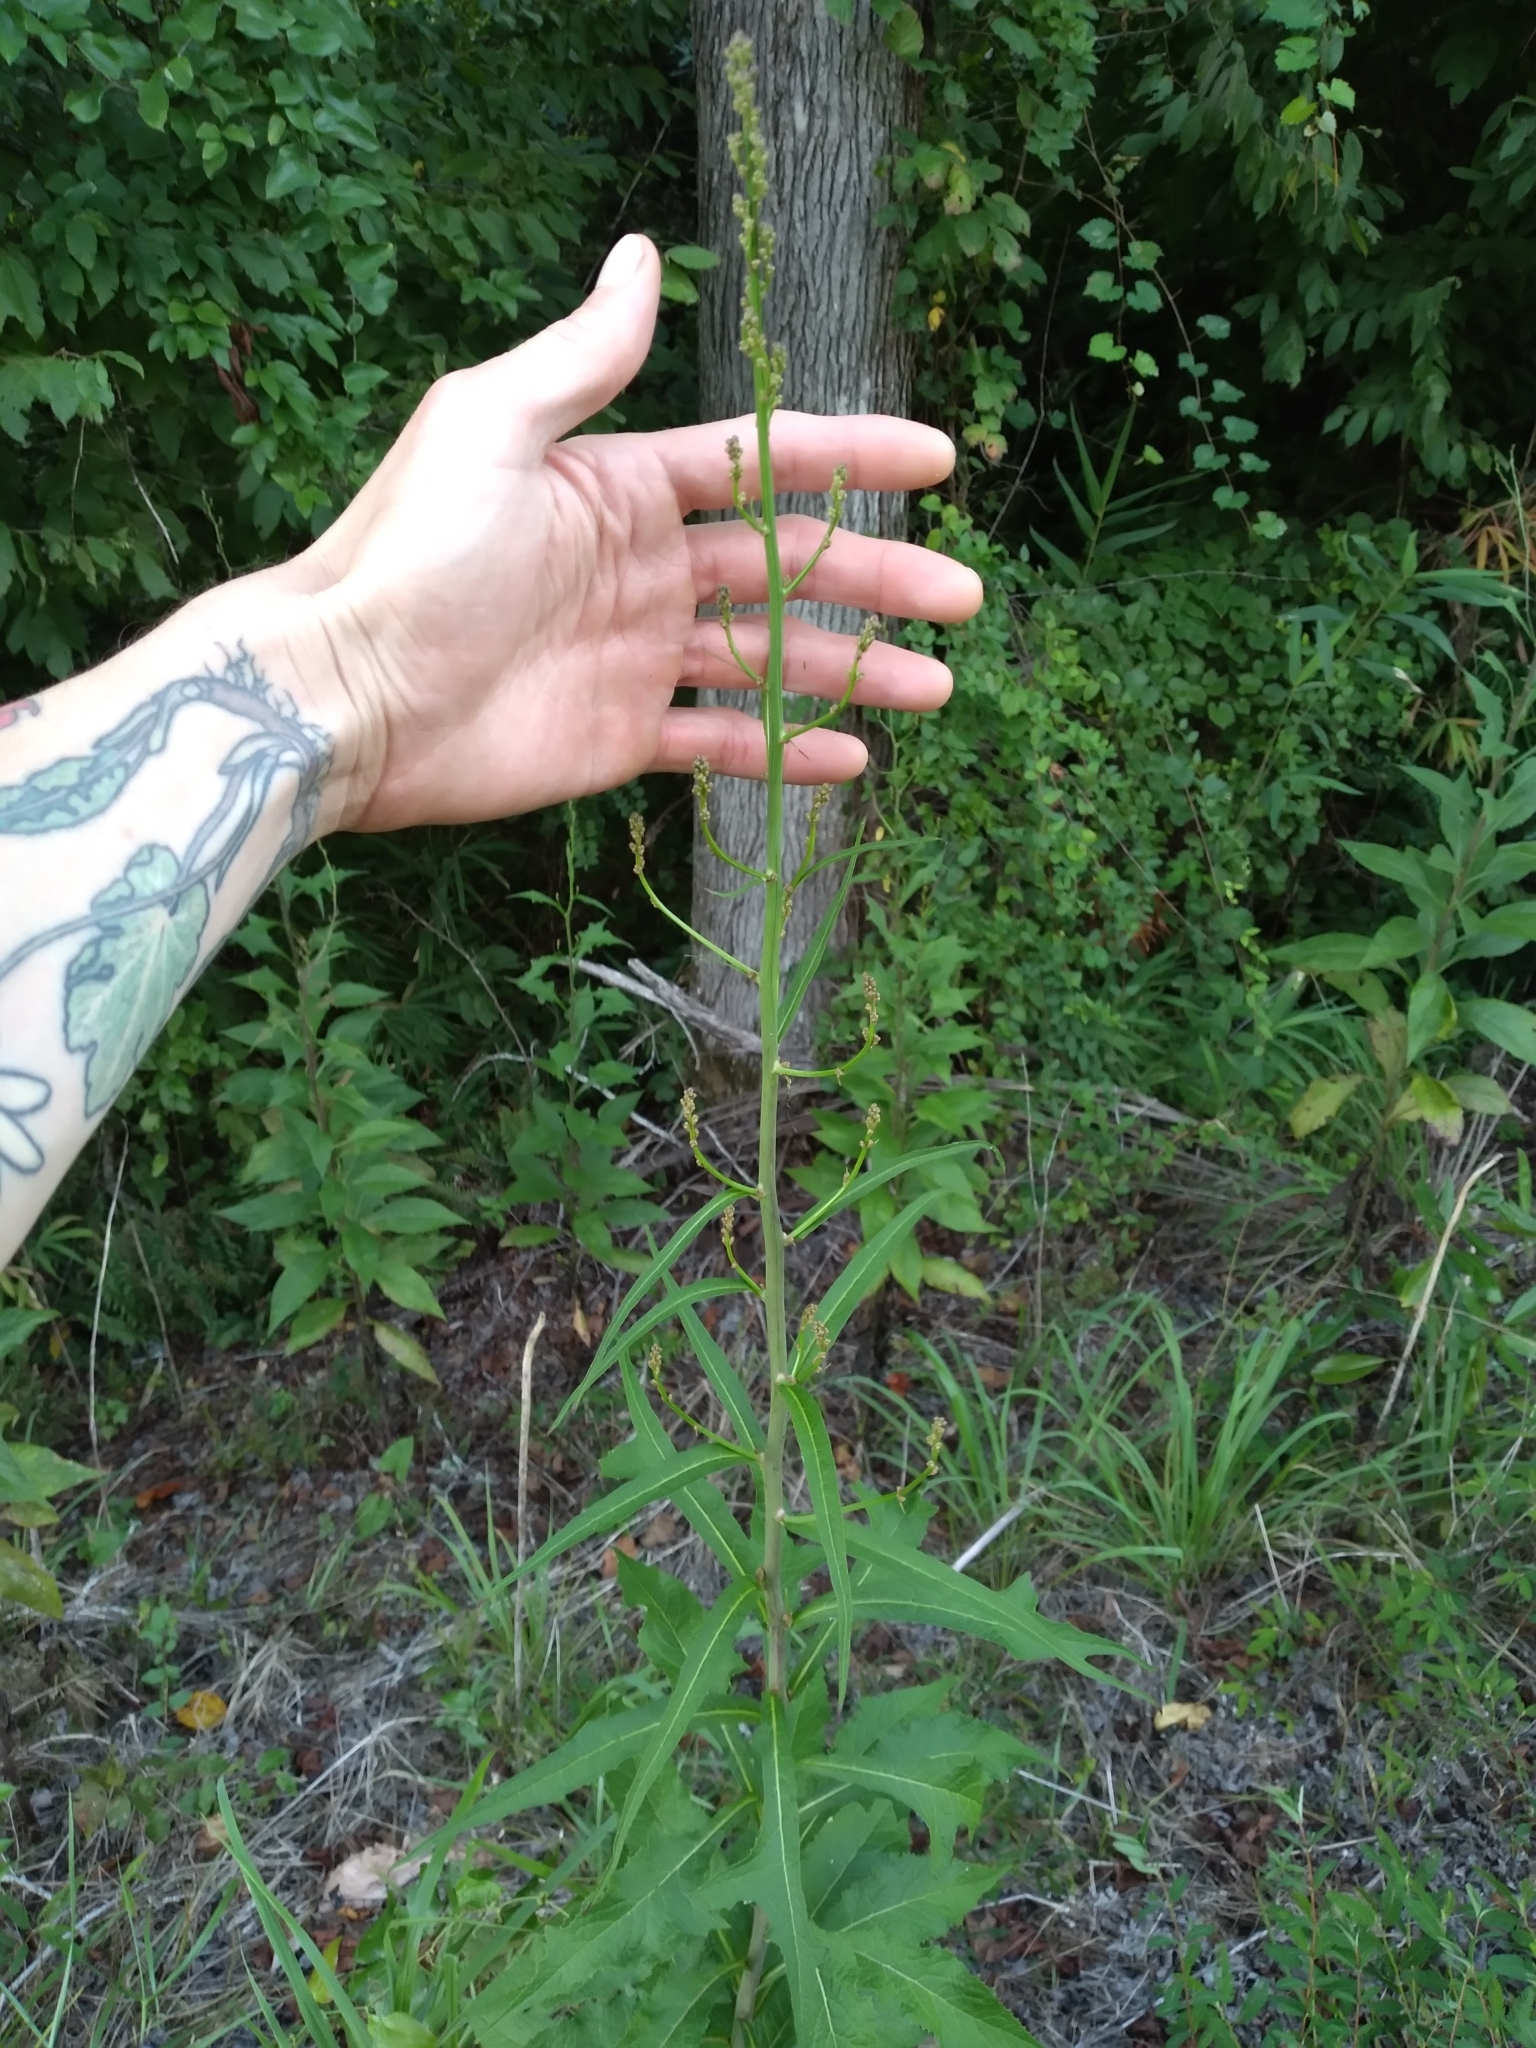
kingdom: Plantae
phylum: Tracheophyta
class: Magnoliopsida
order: Asterales
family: Asteraceae
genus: Lactuca
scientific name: Lactuca graminifolia
